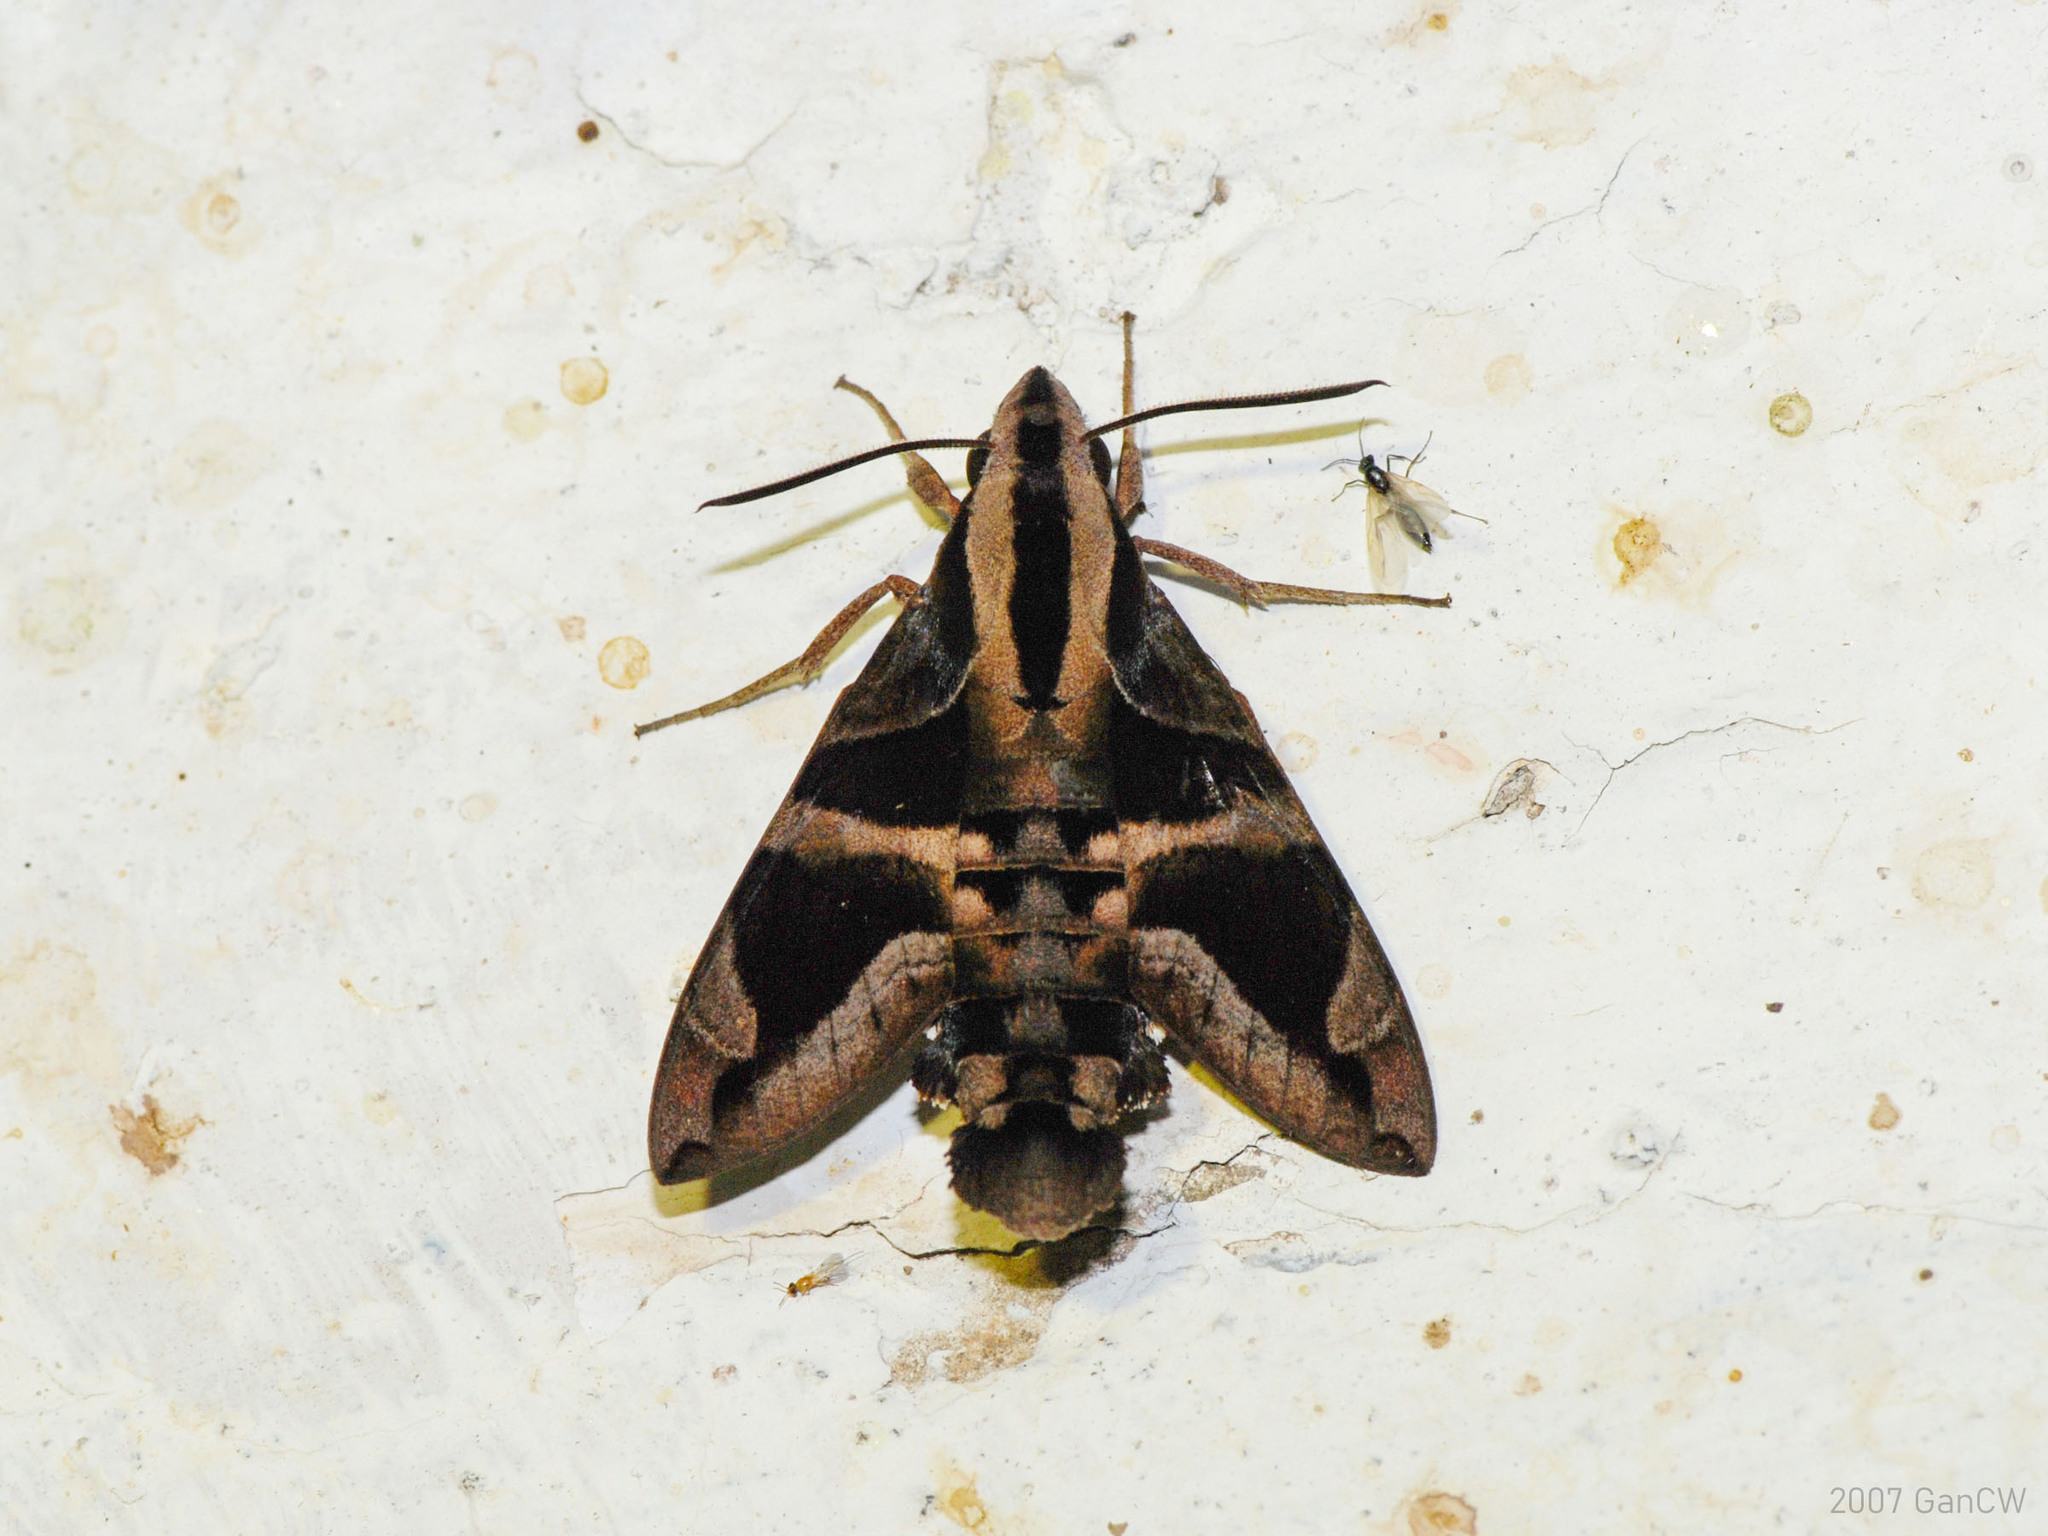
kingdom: Animalia
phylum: Arthropoda
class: Insecta
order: Lepidoptera
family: Sphingidae
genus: Macroglossum
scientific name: Macroglossum mitchellii
